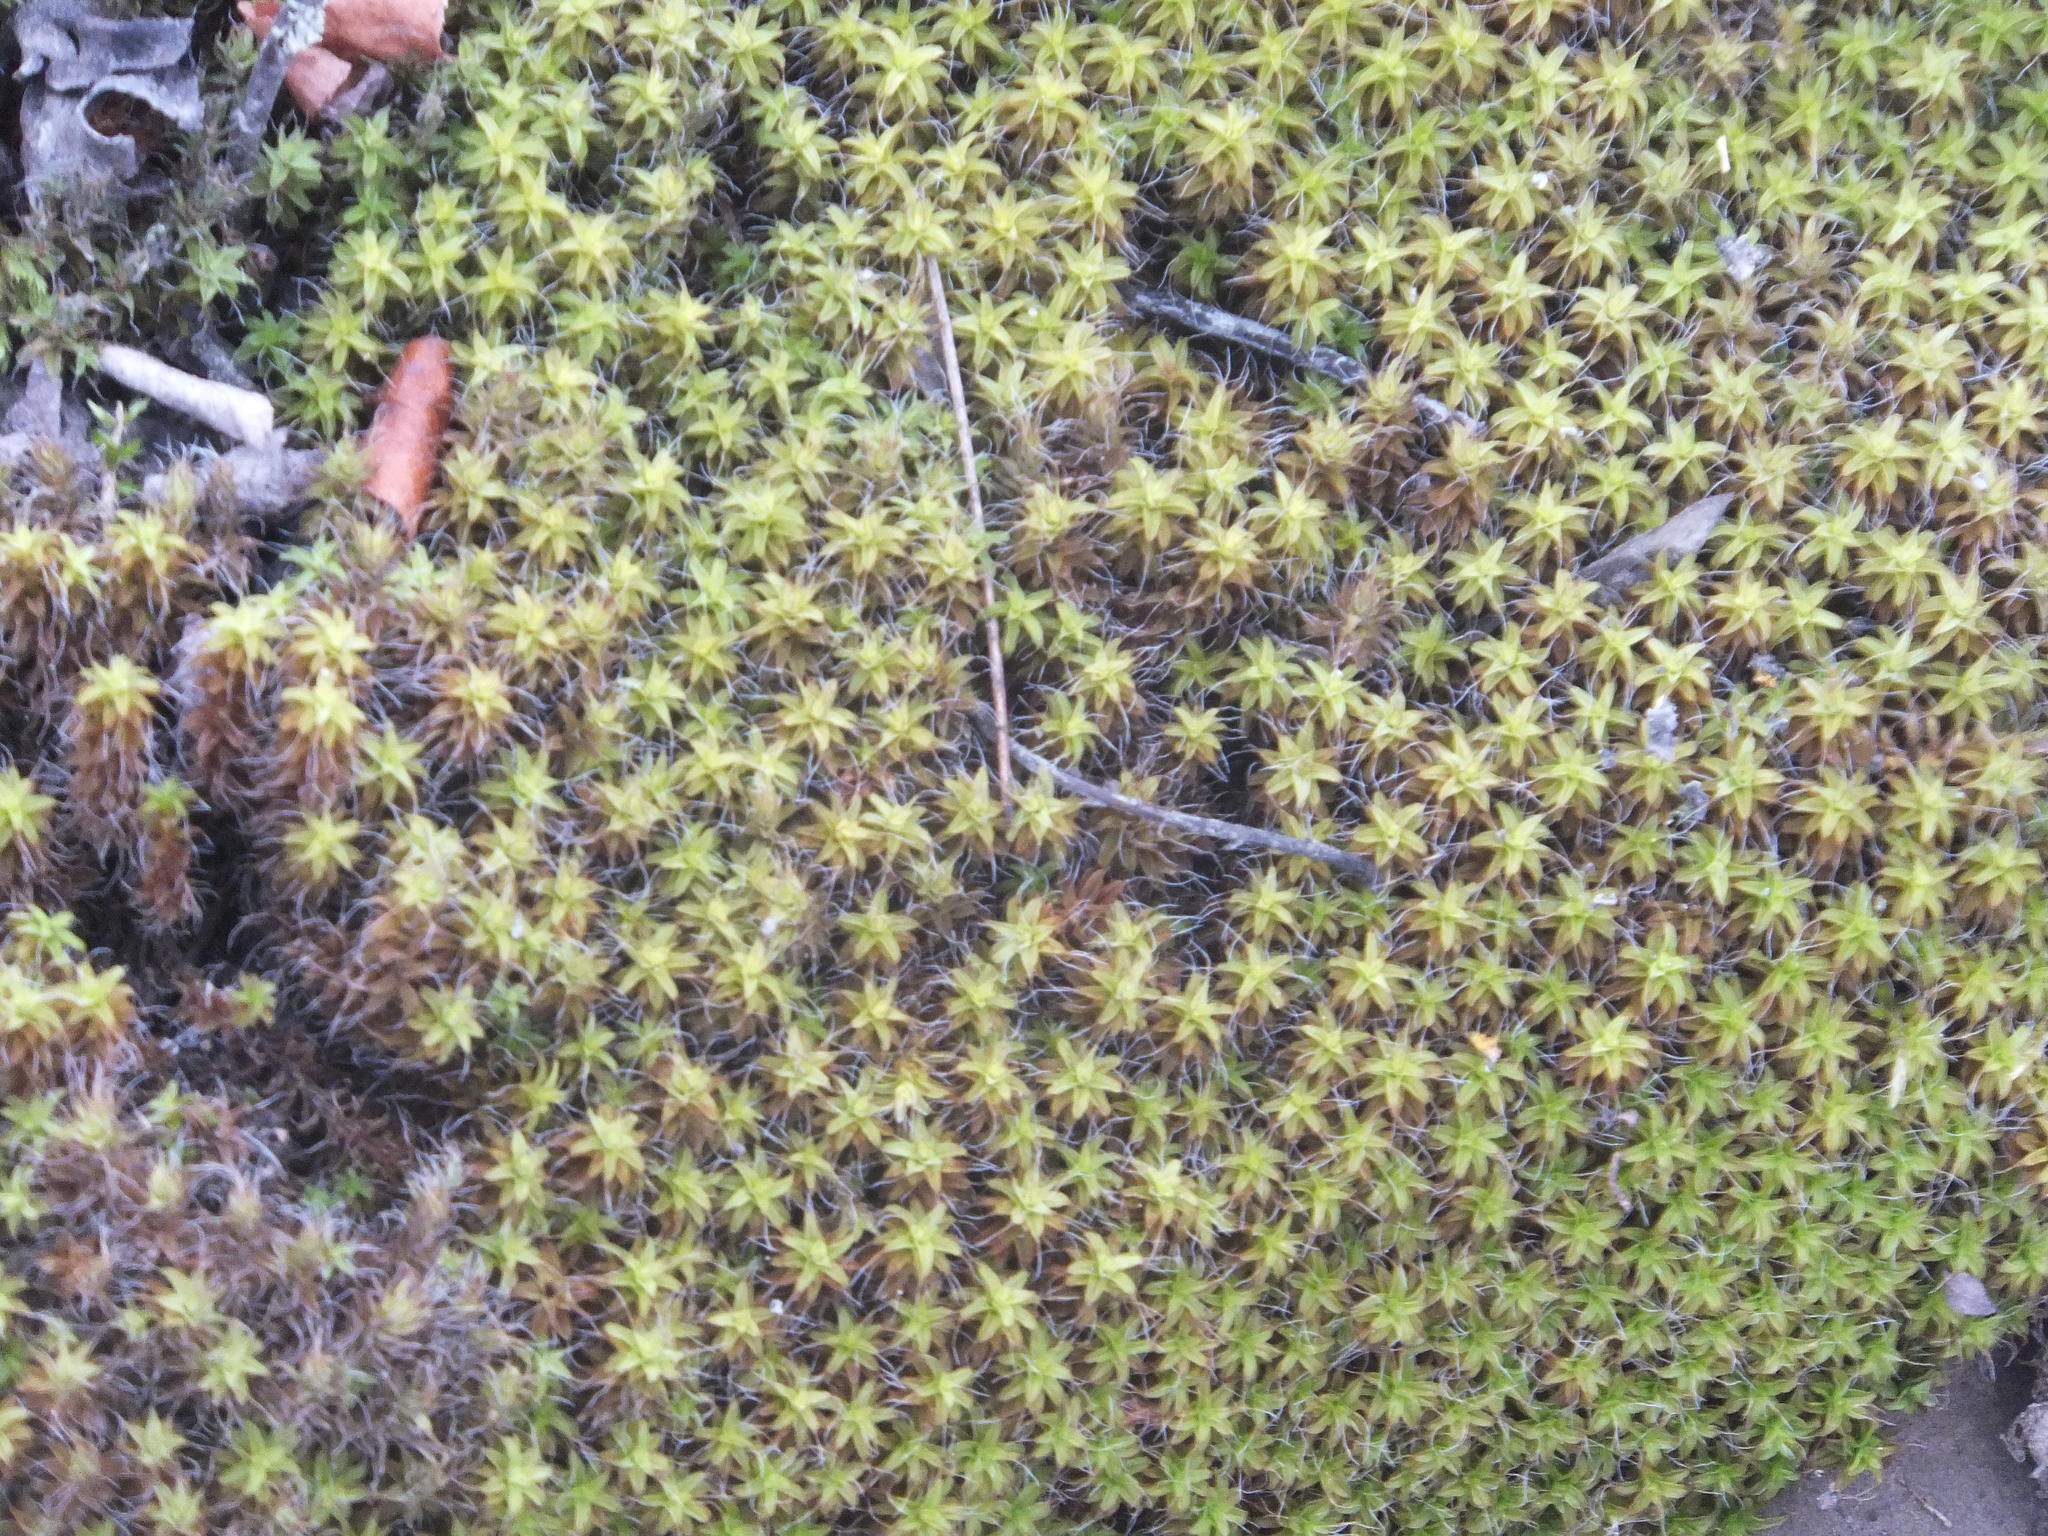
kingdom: Plantae
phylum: Bryophyta
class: Bryopsida
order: Pottiales
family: Pottiaceae
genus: Syntrichia
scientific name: Syntrichia ruralis
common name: Sidewalk screw moss
